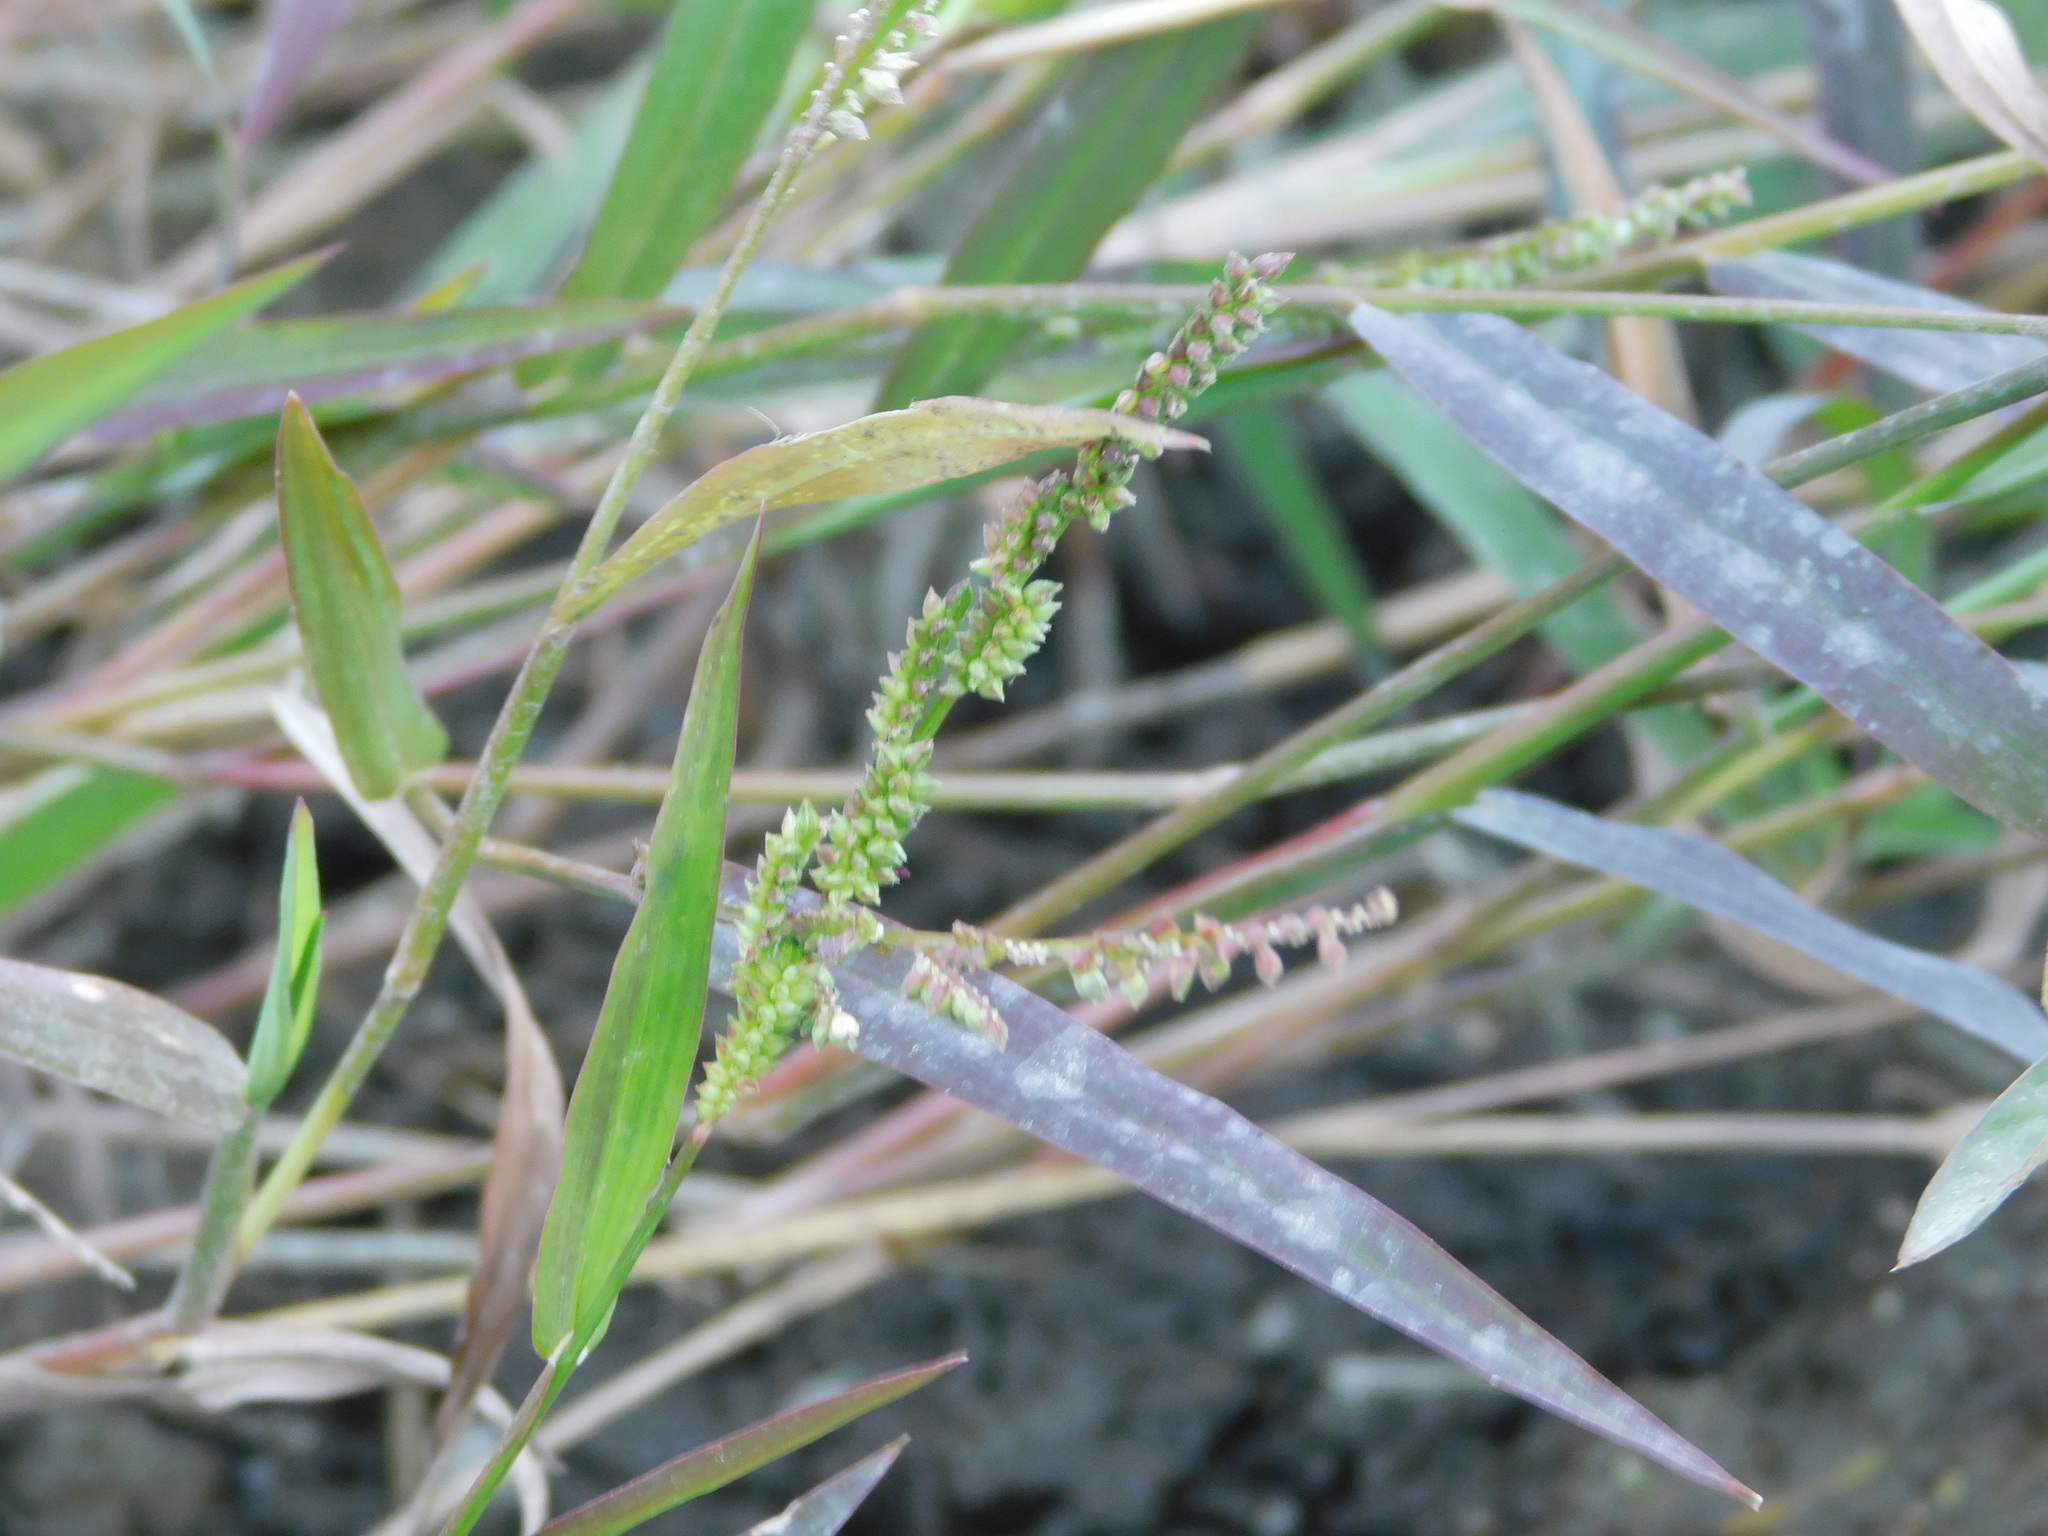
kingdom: Plantae
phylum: Tracheophyta
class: Liliopsida
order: Poales
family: Poaceae
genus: Echinochloa
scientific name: Echinochloa colonum
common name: Jungle rice
